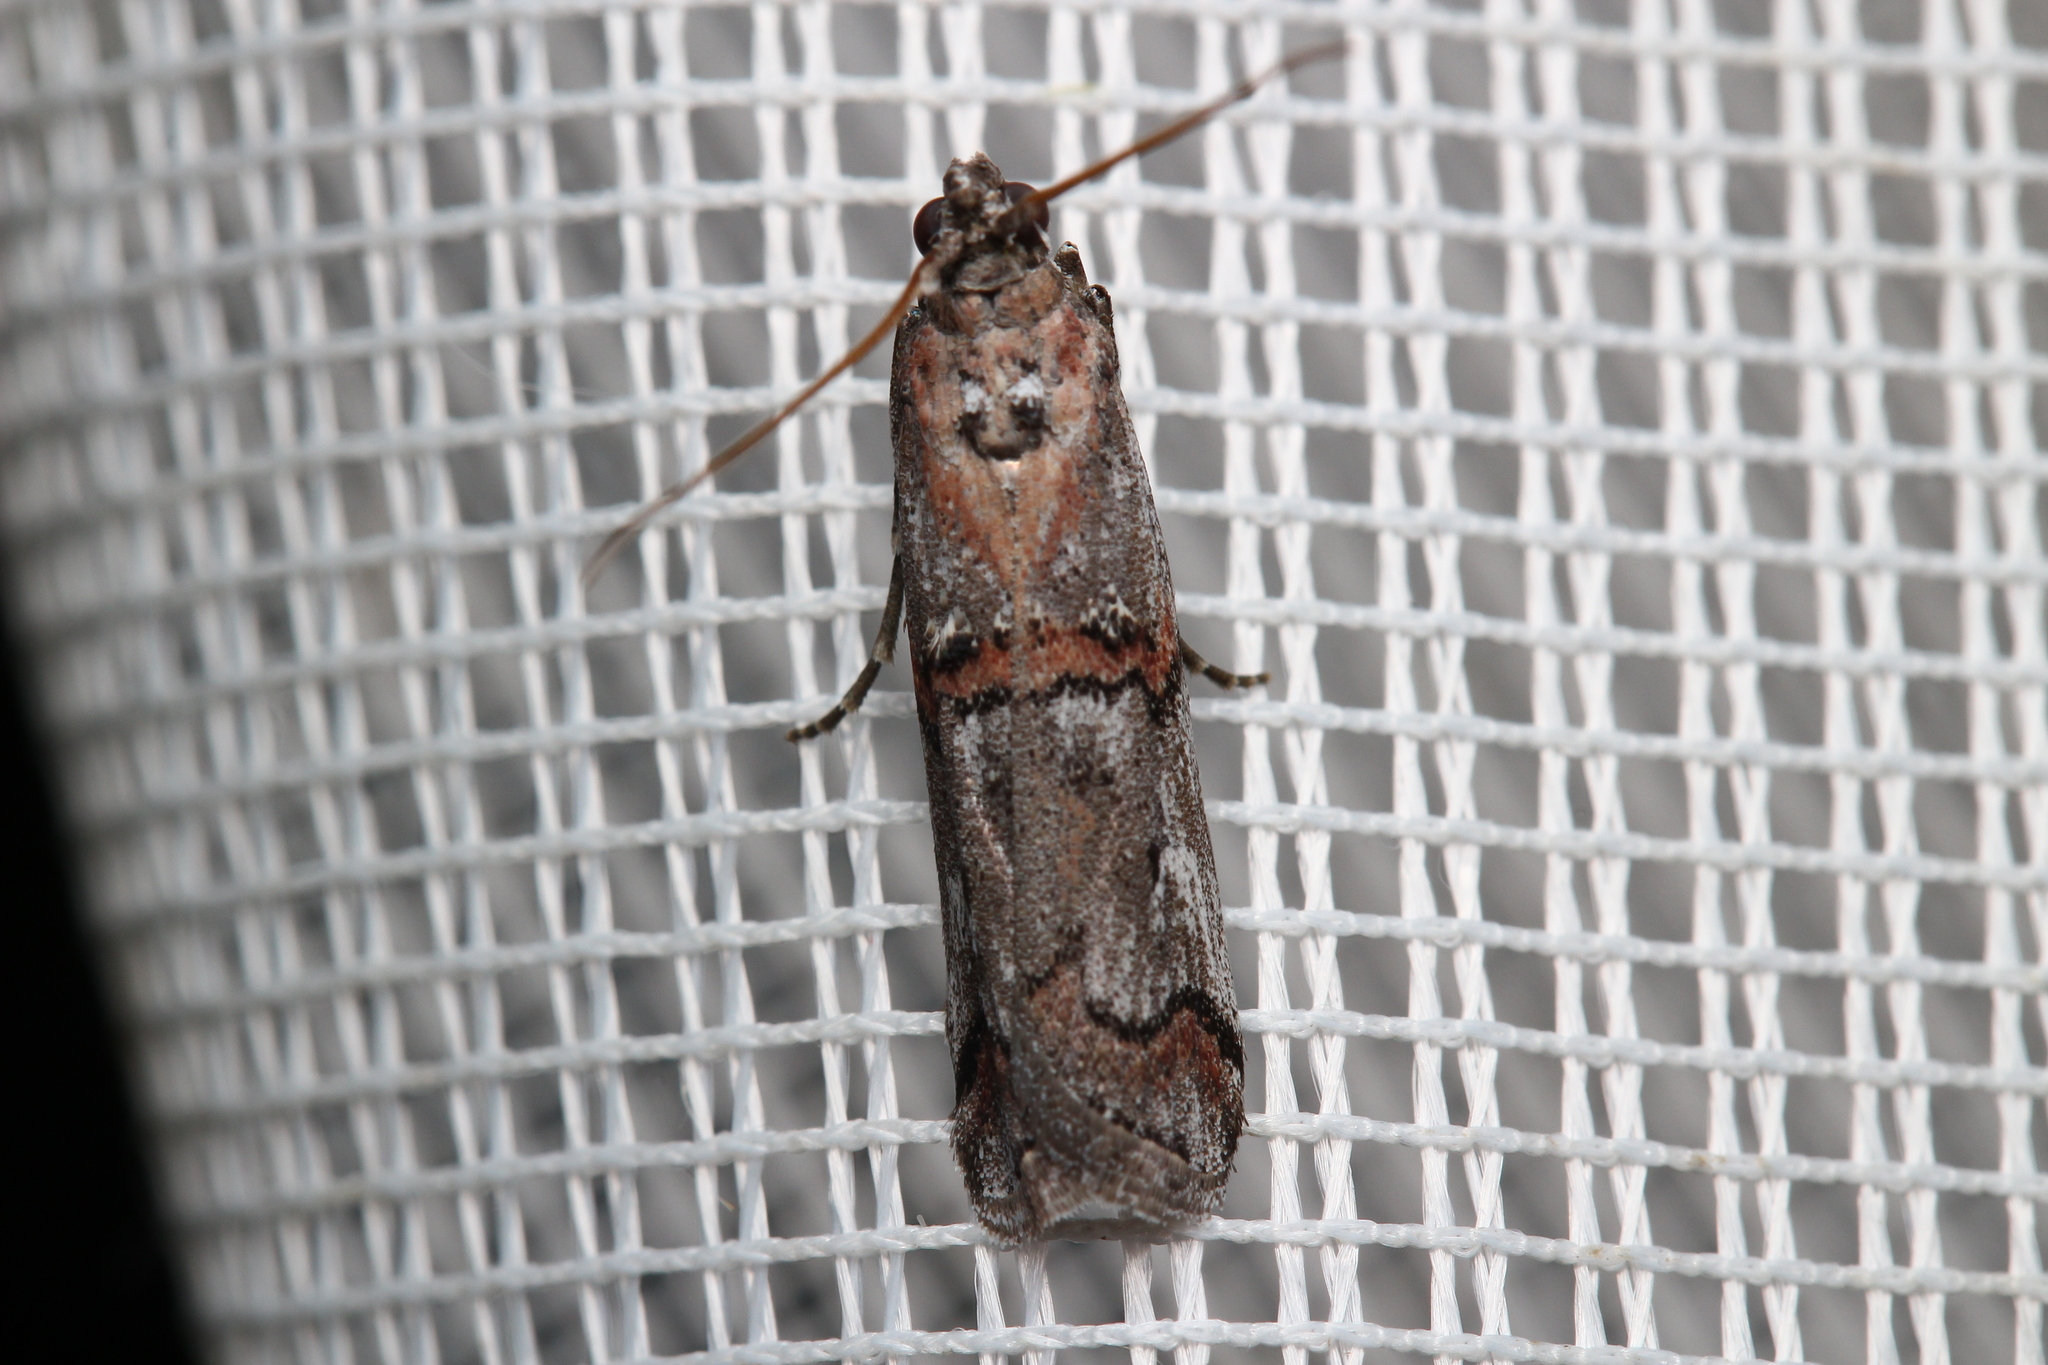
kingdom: Animalia
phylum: Arthropoda
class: Insecta
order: Lepidoptera
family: Pyralidae
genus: Pempelia
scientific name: Pempelia palumbella
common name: Heather knot-horn
